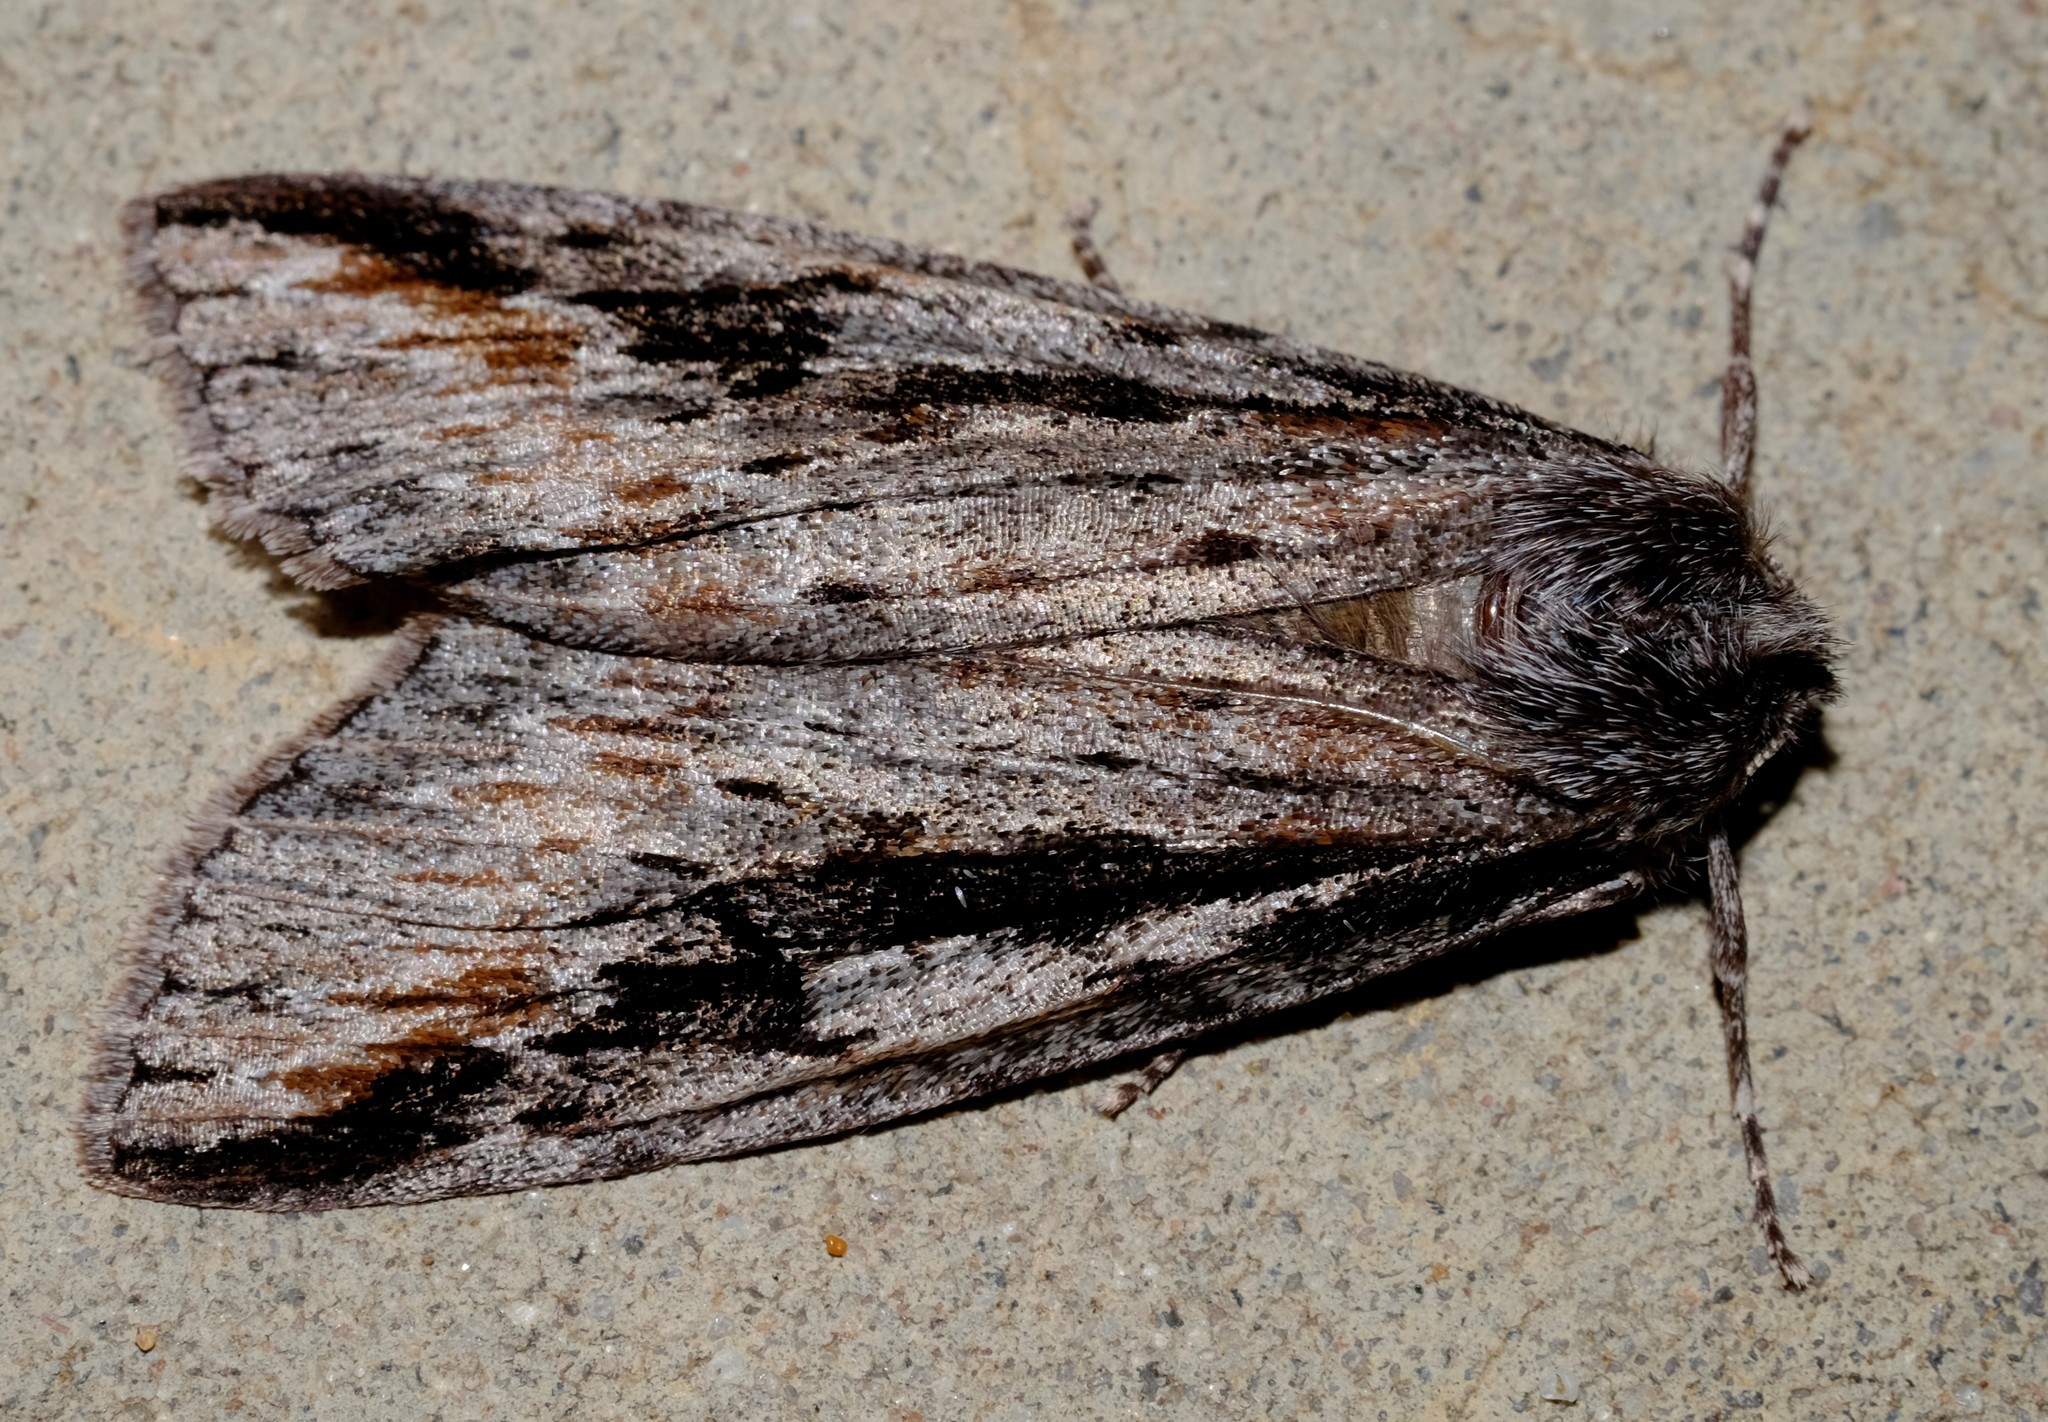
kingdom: Animalia
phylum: Arthropoda
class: Insecta
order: Lepidoptera
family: Geometridae
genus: Chlenias
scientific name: Chlenias banksiaria
